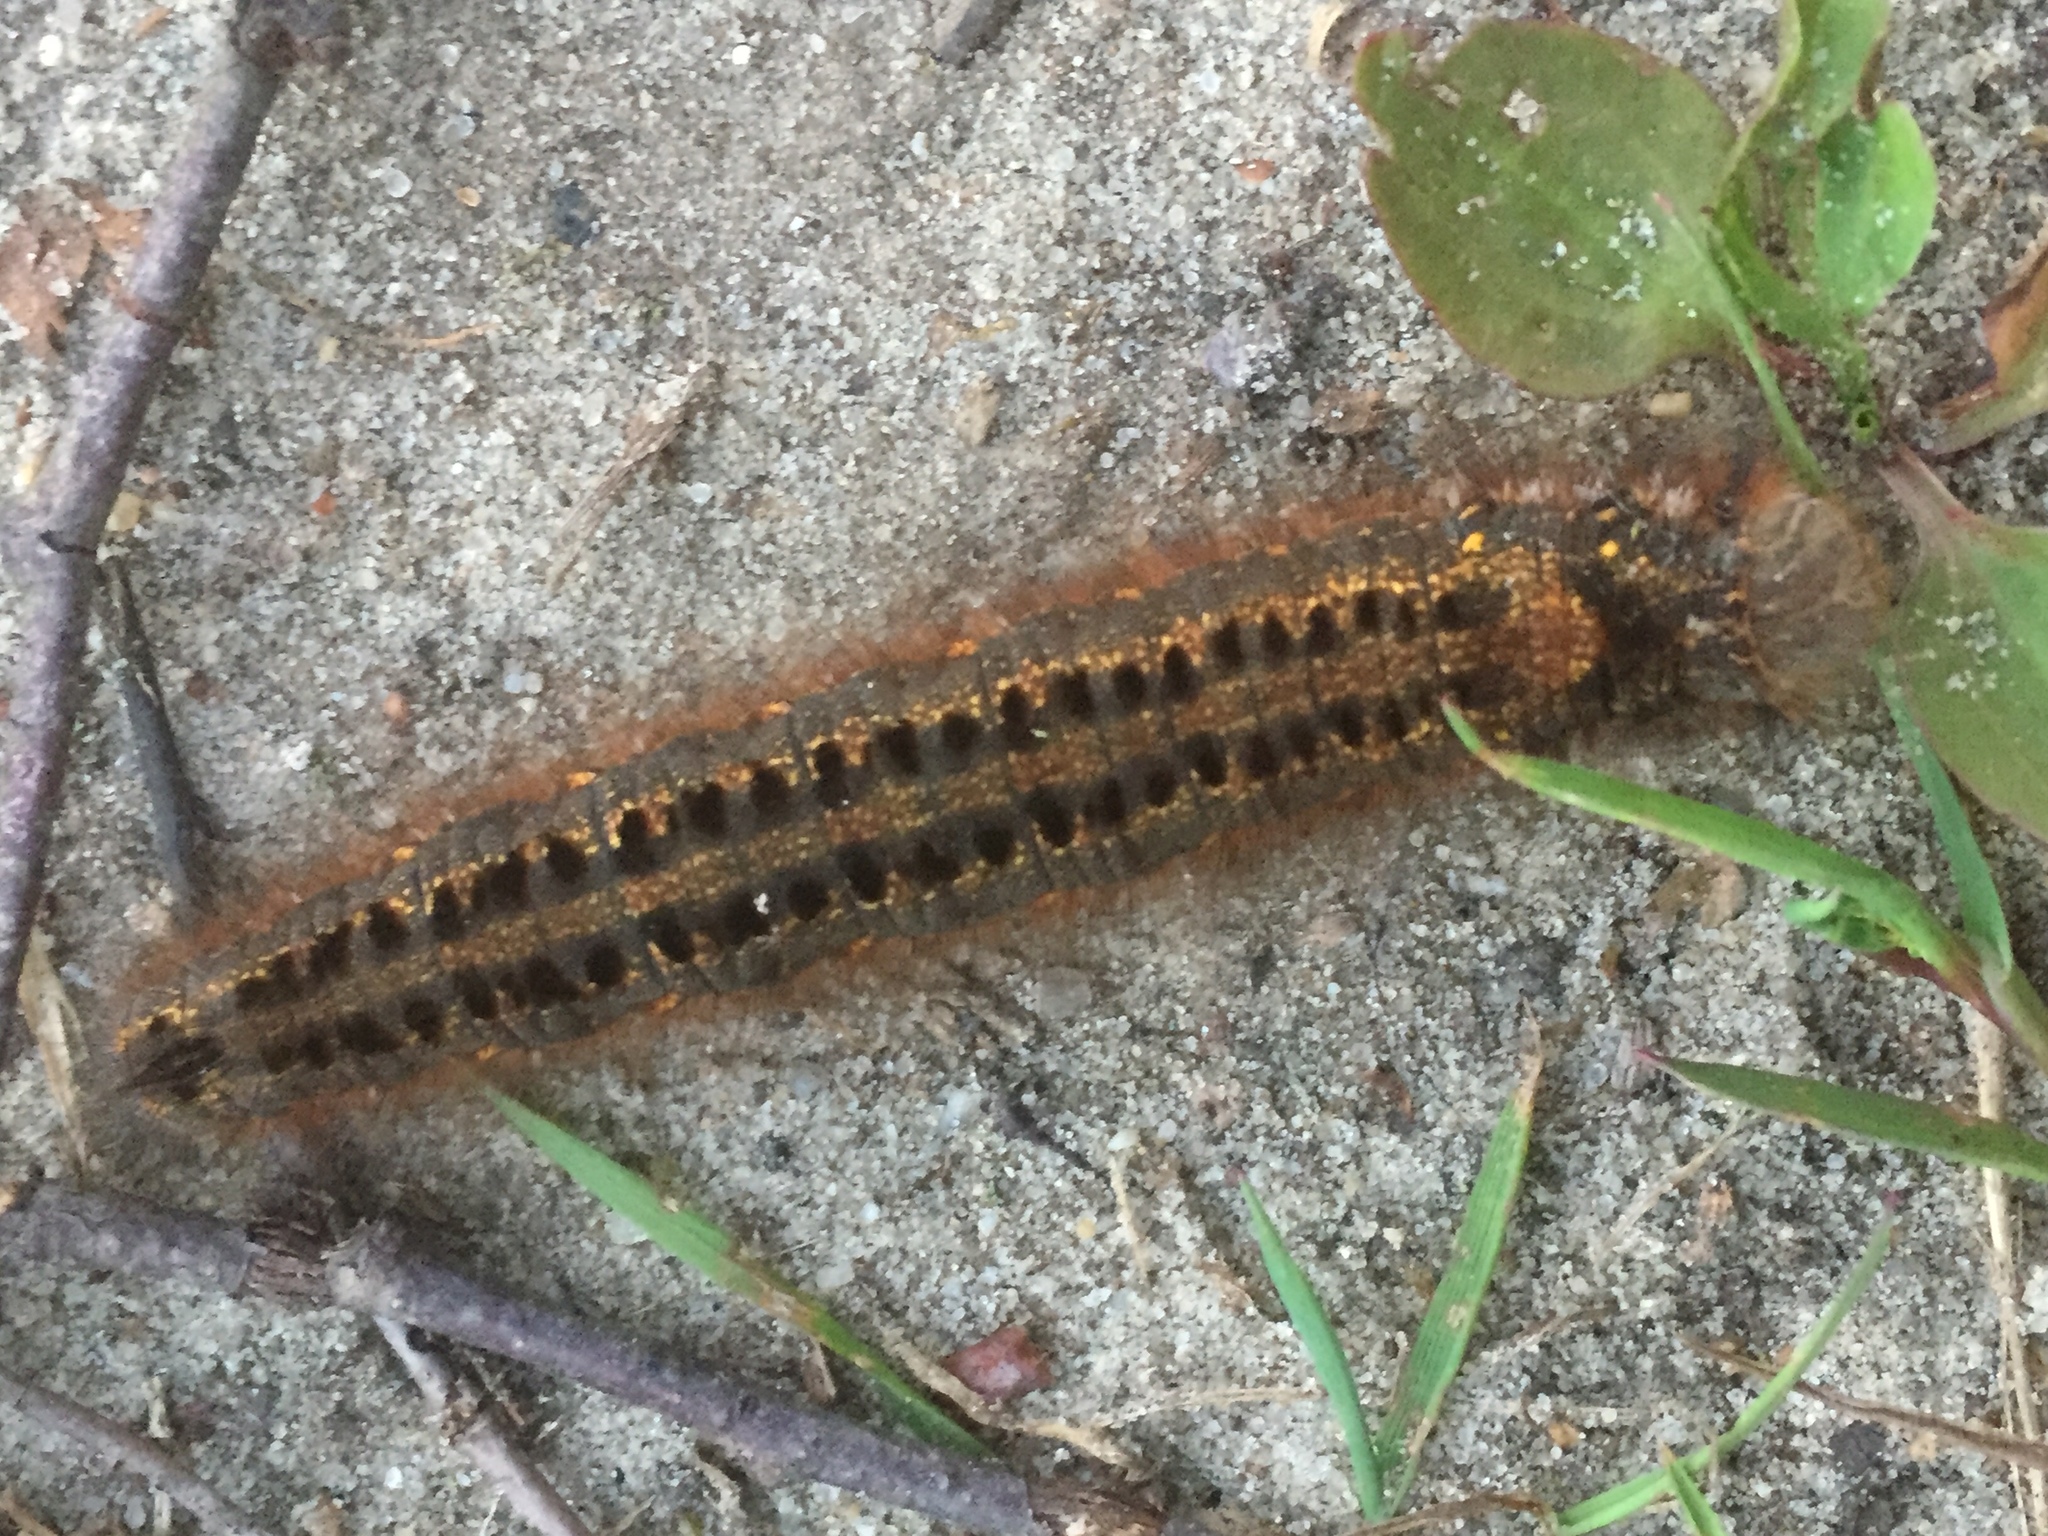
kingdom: Animalia
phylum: Arthropoda
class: Insecta
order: Lepidoptera
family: Lasiocampidae
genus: Euthrix
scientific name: Euthrix potatoria
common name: Drinker
